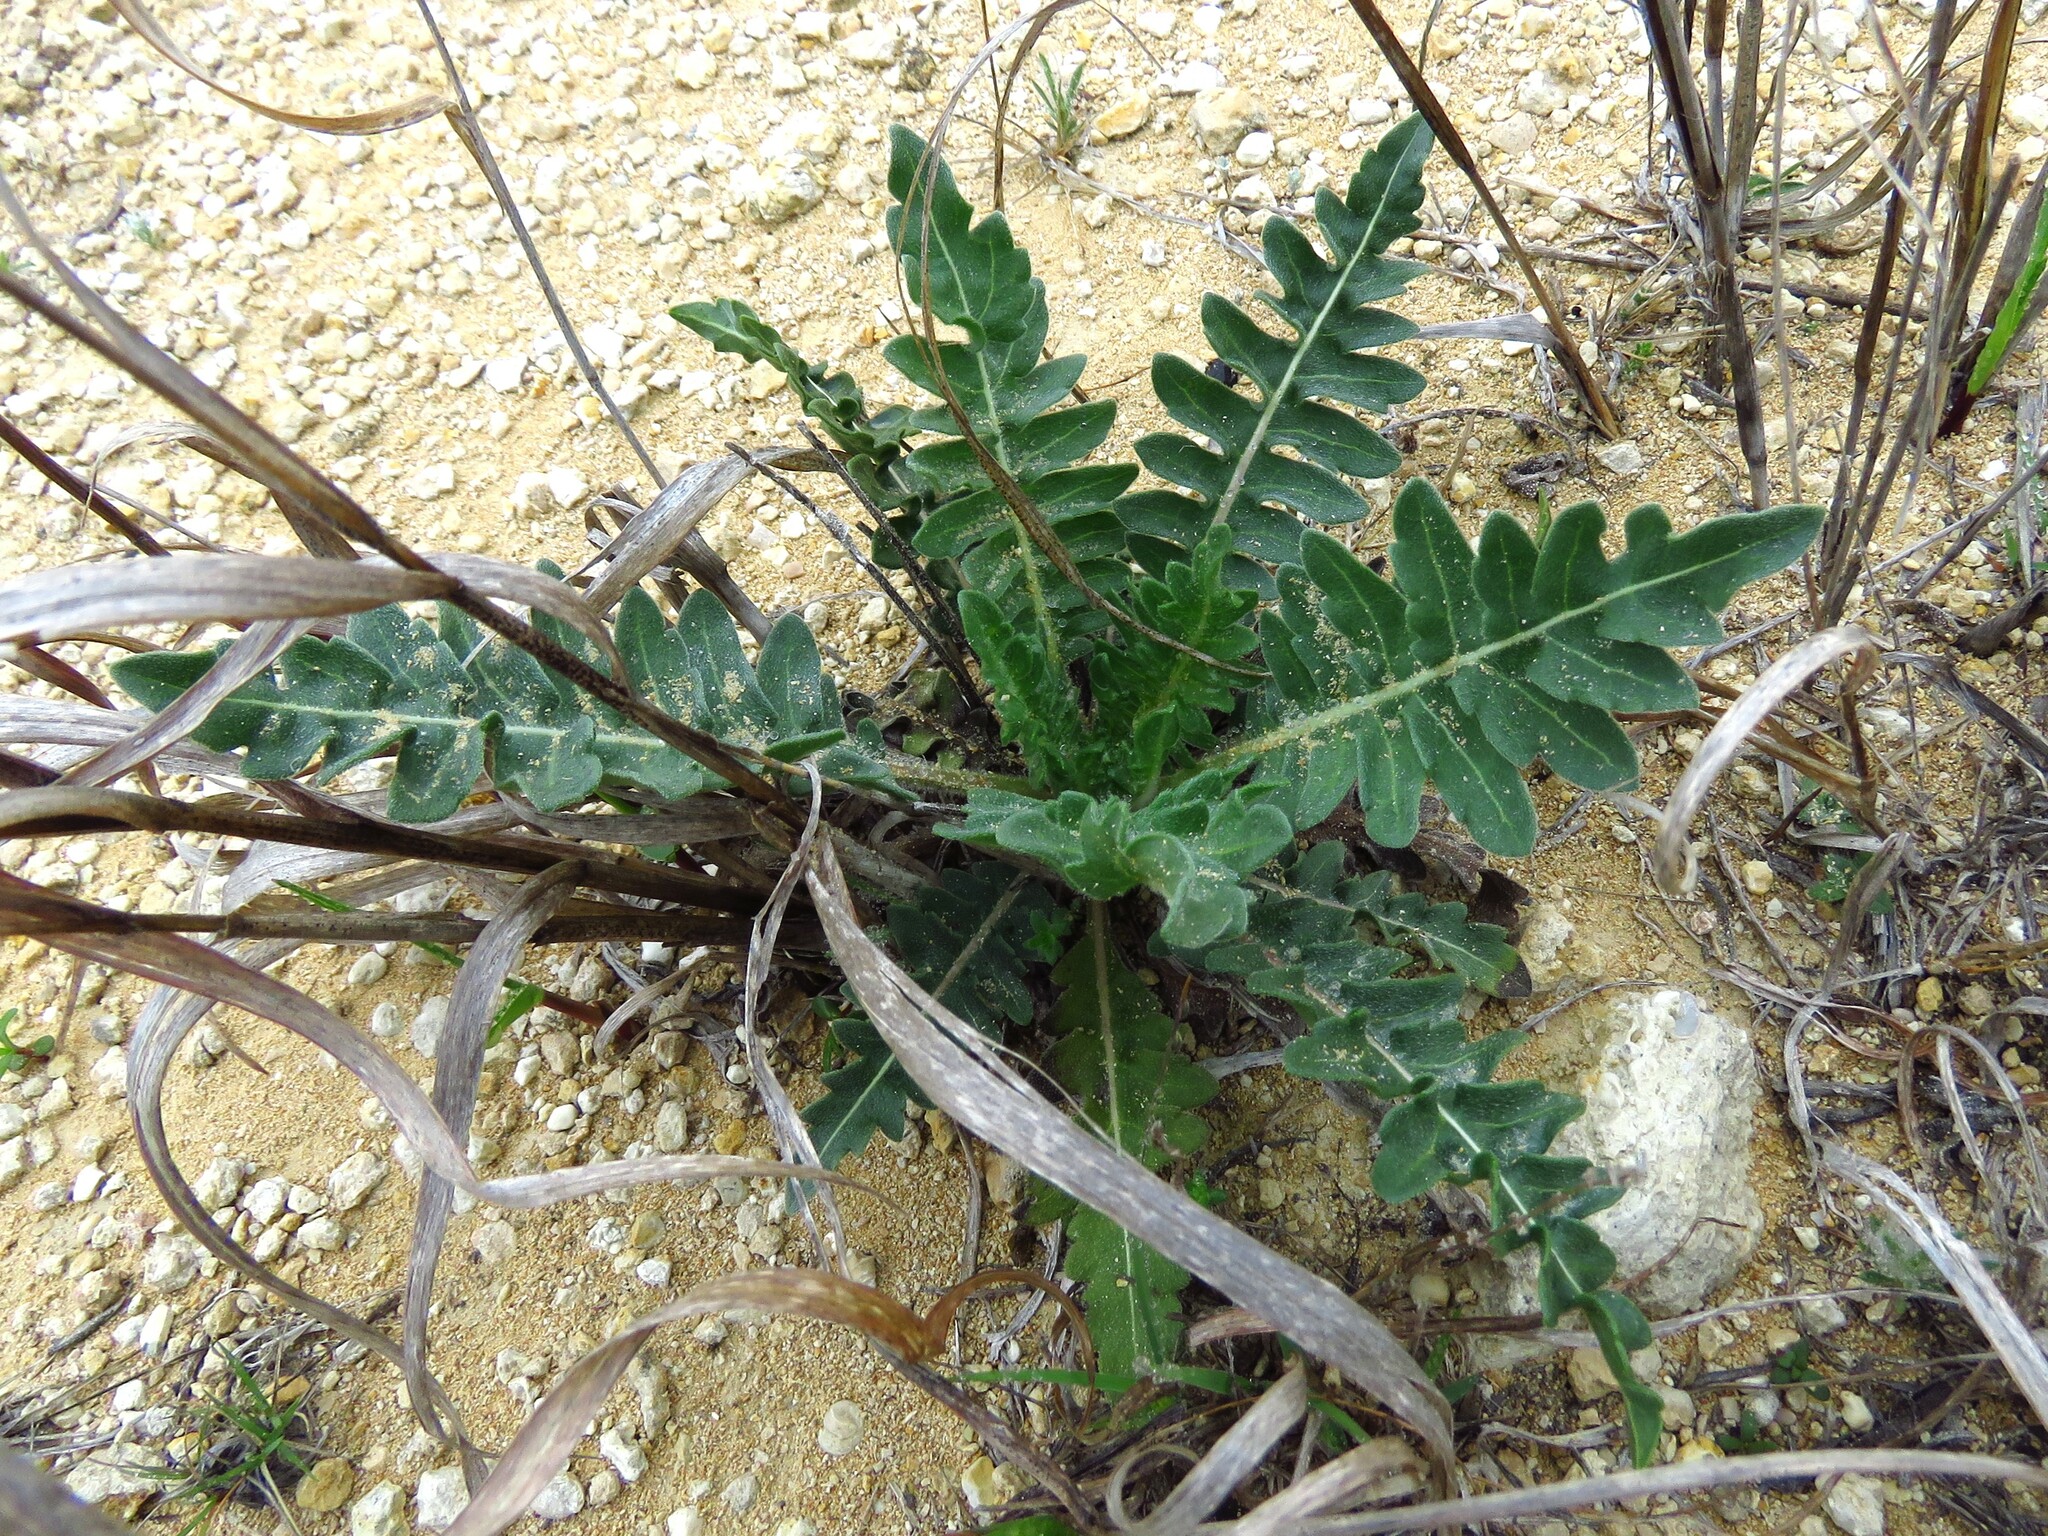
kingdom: Plantae
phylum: Tracheophyta
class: Magnoliopsida
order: Asterales
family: Asteraceae
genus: Engelmannia
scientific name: Engelmannia peristenia
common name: Engelmann's daisy
